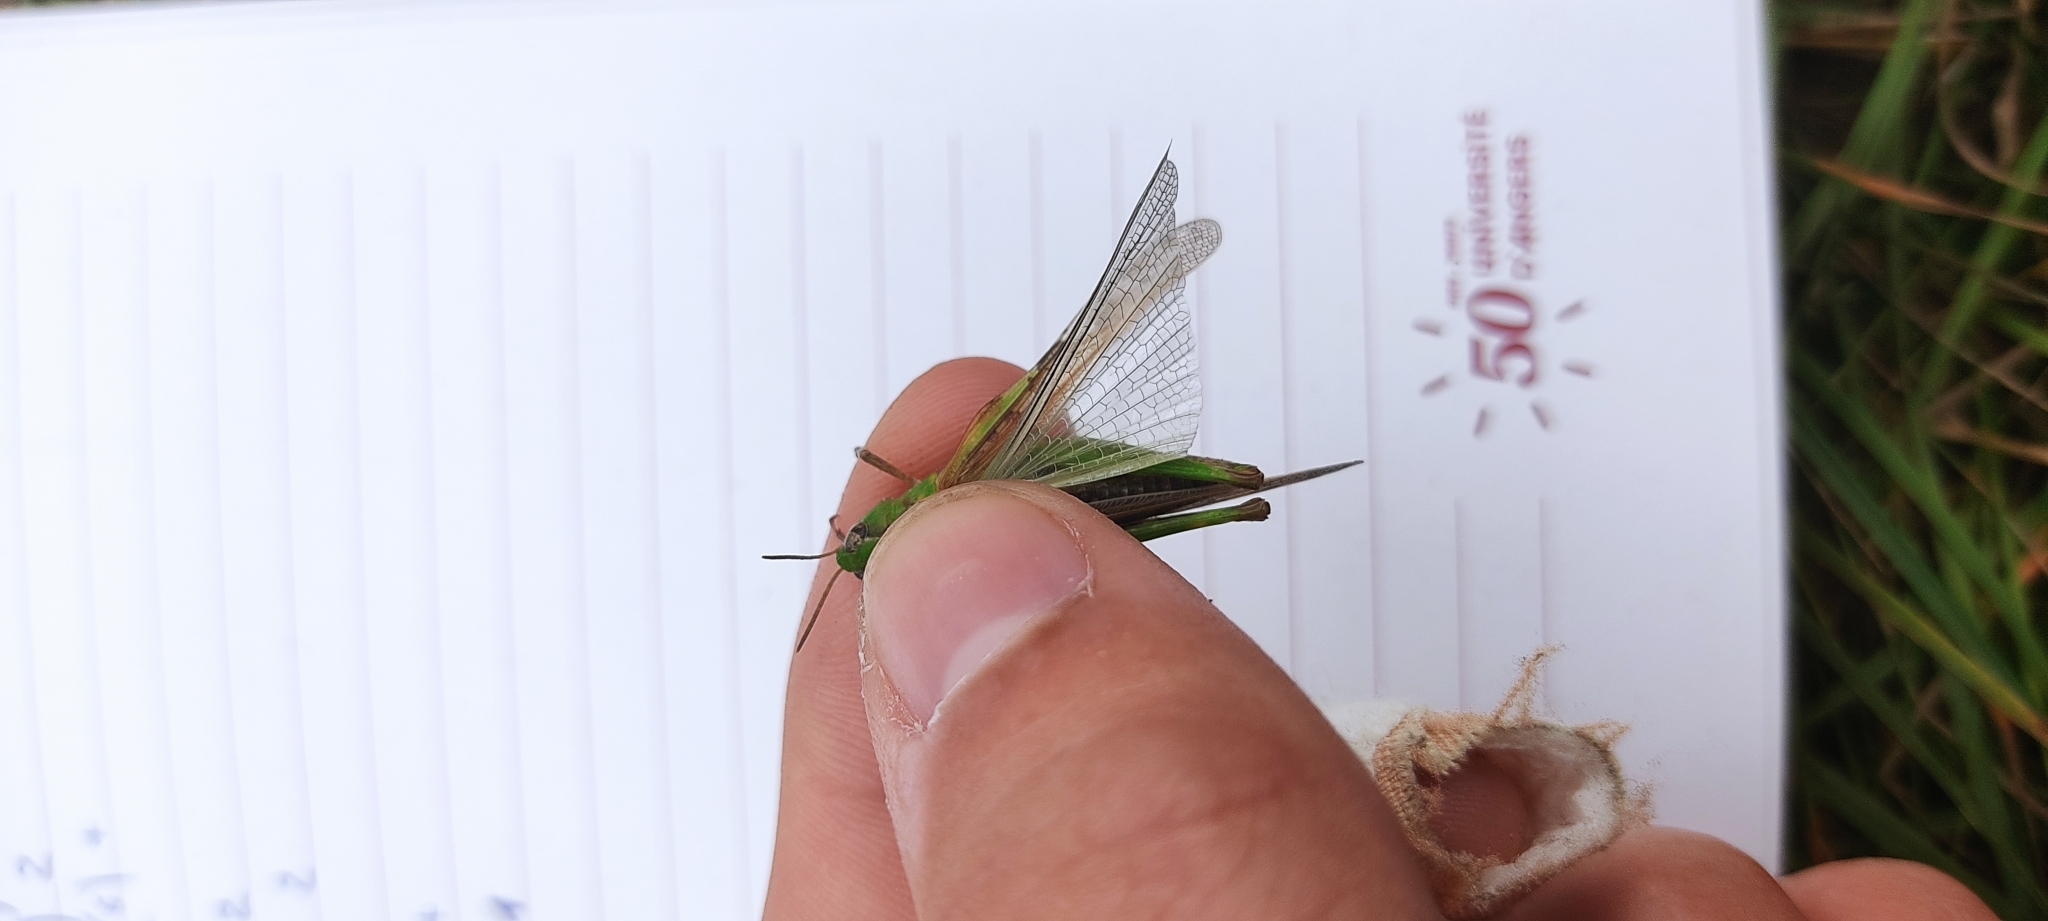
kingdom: Animalia
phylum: Arthropoda
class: Insecta
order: Orthoptera
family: Acrididae
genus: Aiolopus
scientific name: Aiolopus thalassinus
